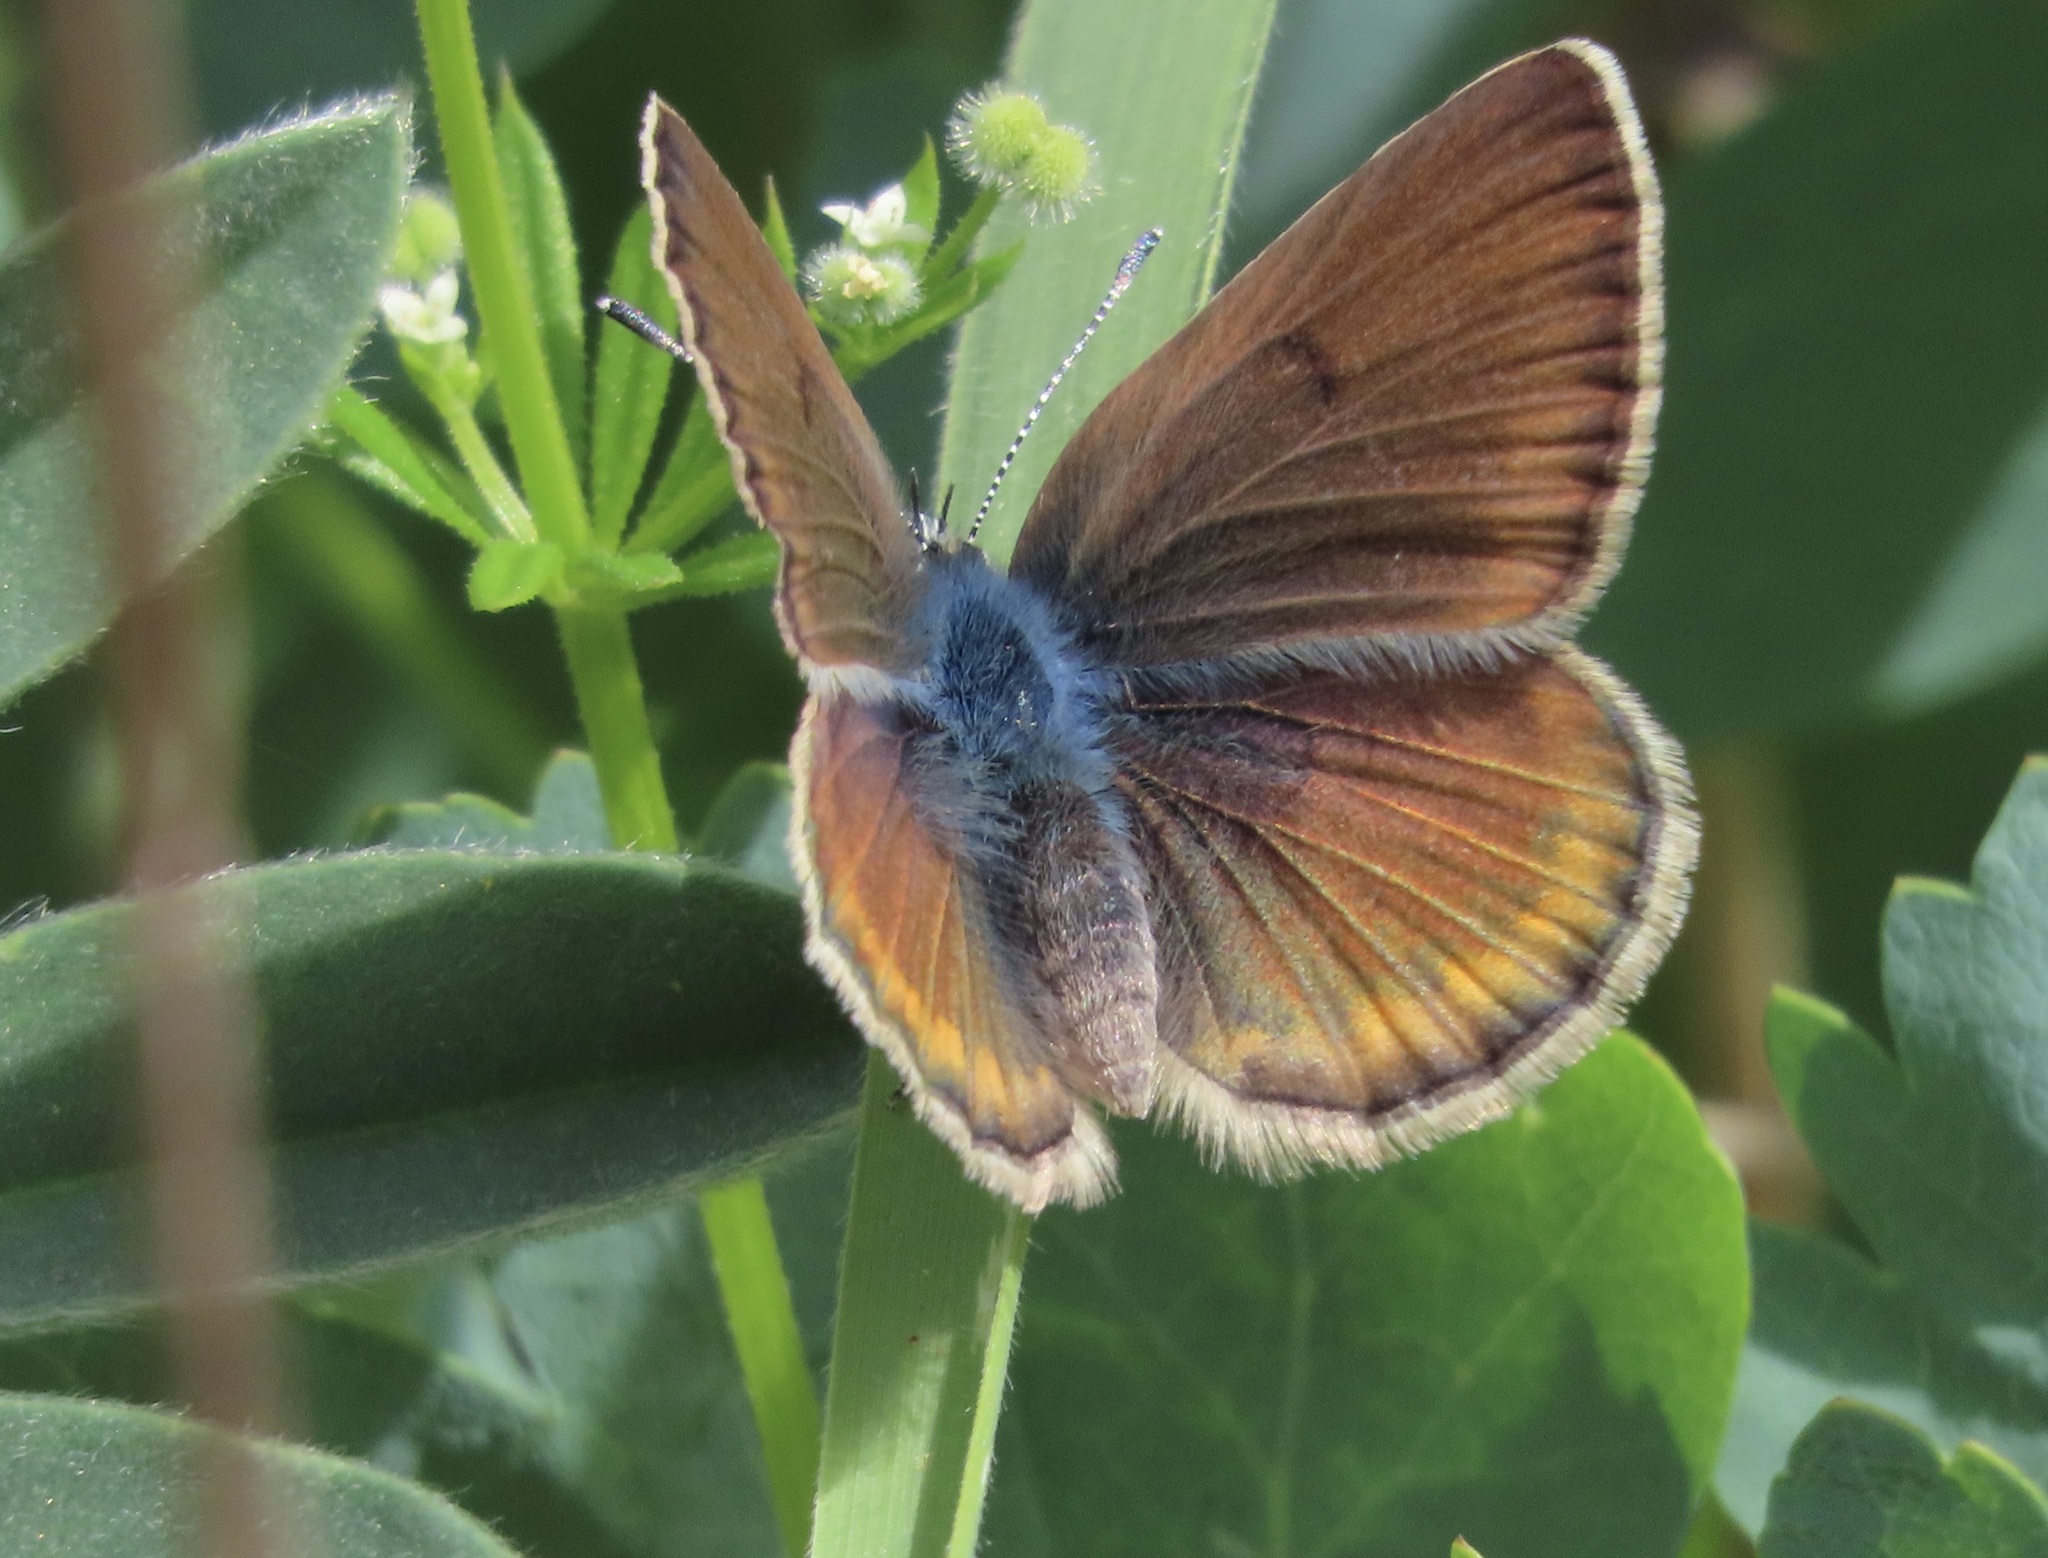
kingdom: Animalia
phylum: Arthropoda
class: Insecta
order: Lepidoptera
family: Lycaenidae
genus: Icaricia
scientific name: Icaricia icarioides
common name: Boisduval's blue
